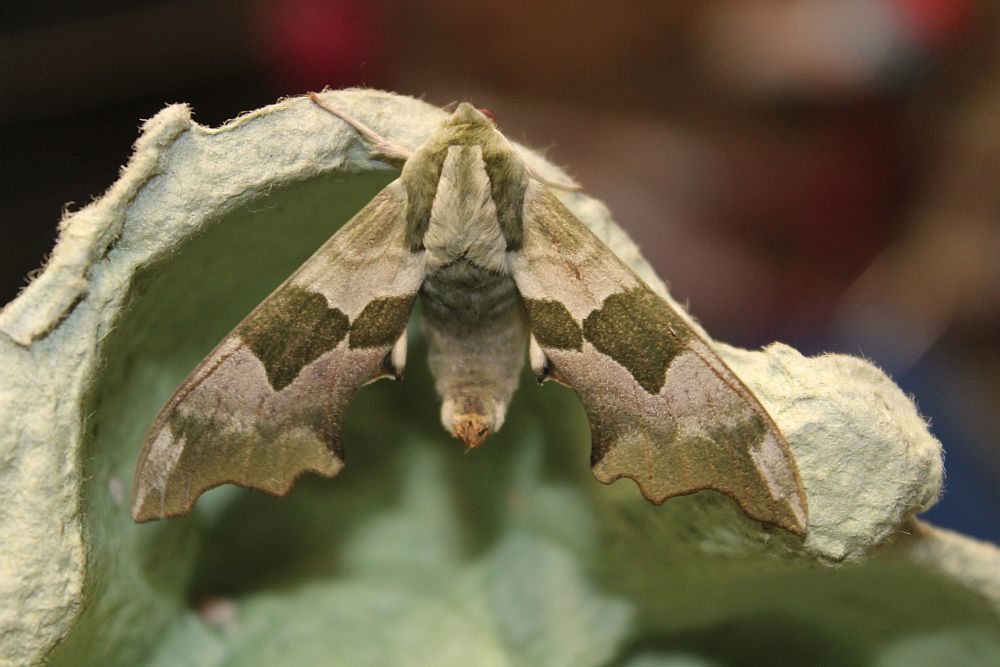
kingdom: Animalia
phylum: Arthropoda
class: Insecta
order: Lepidoptera
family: Sphingidae
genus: Mimas
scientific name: Mimas tiliae
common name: Lime hawk-moth
